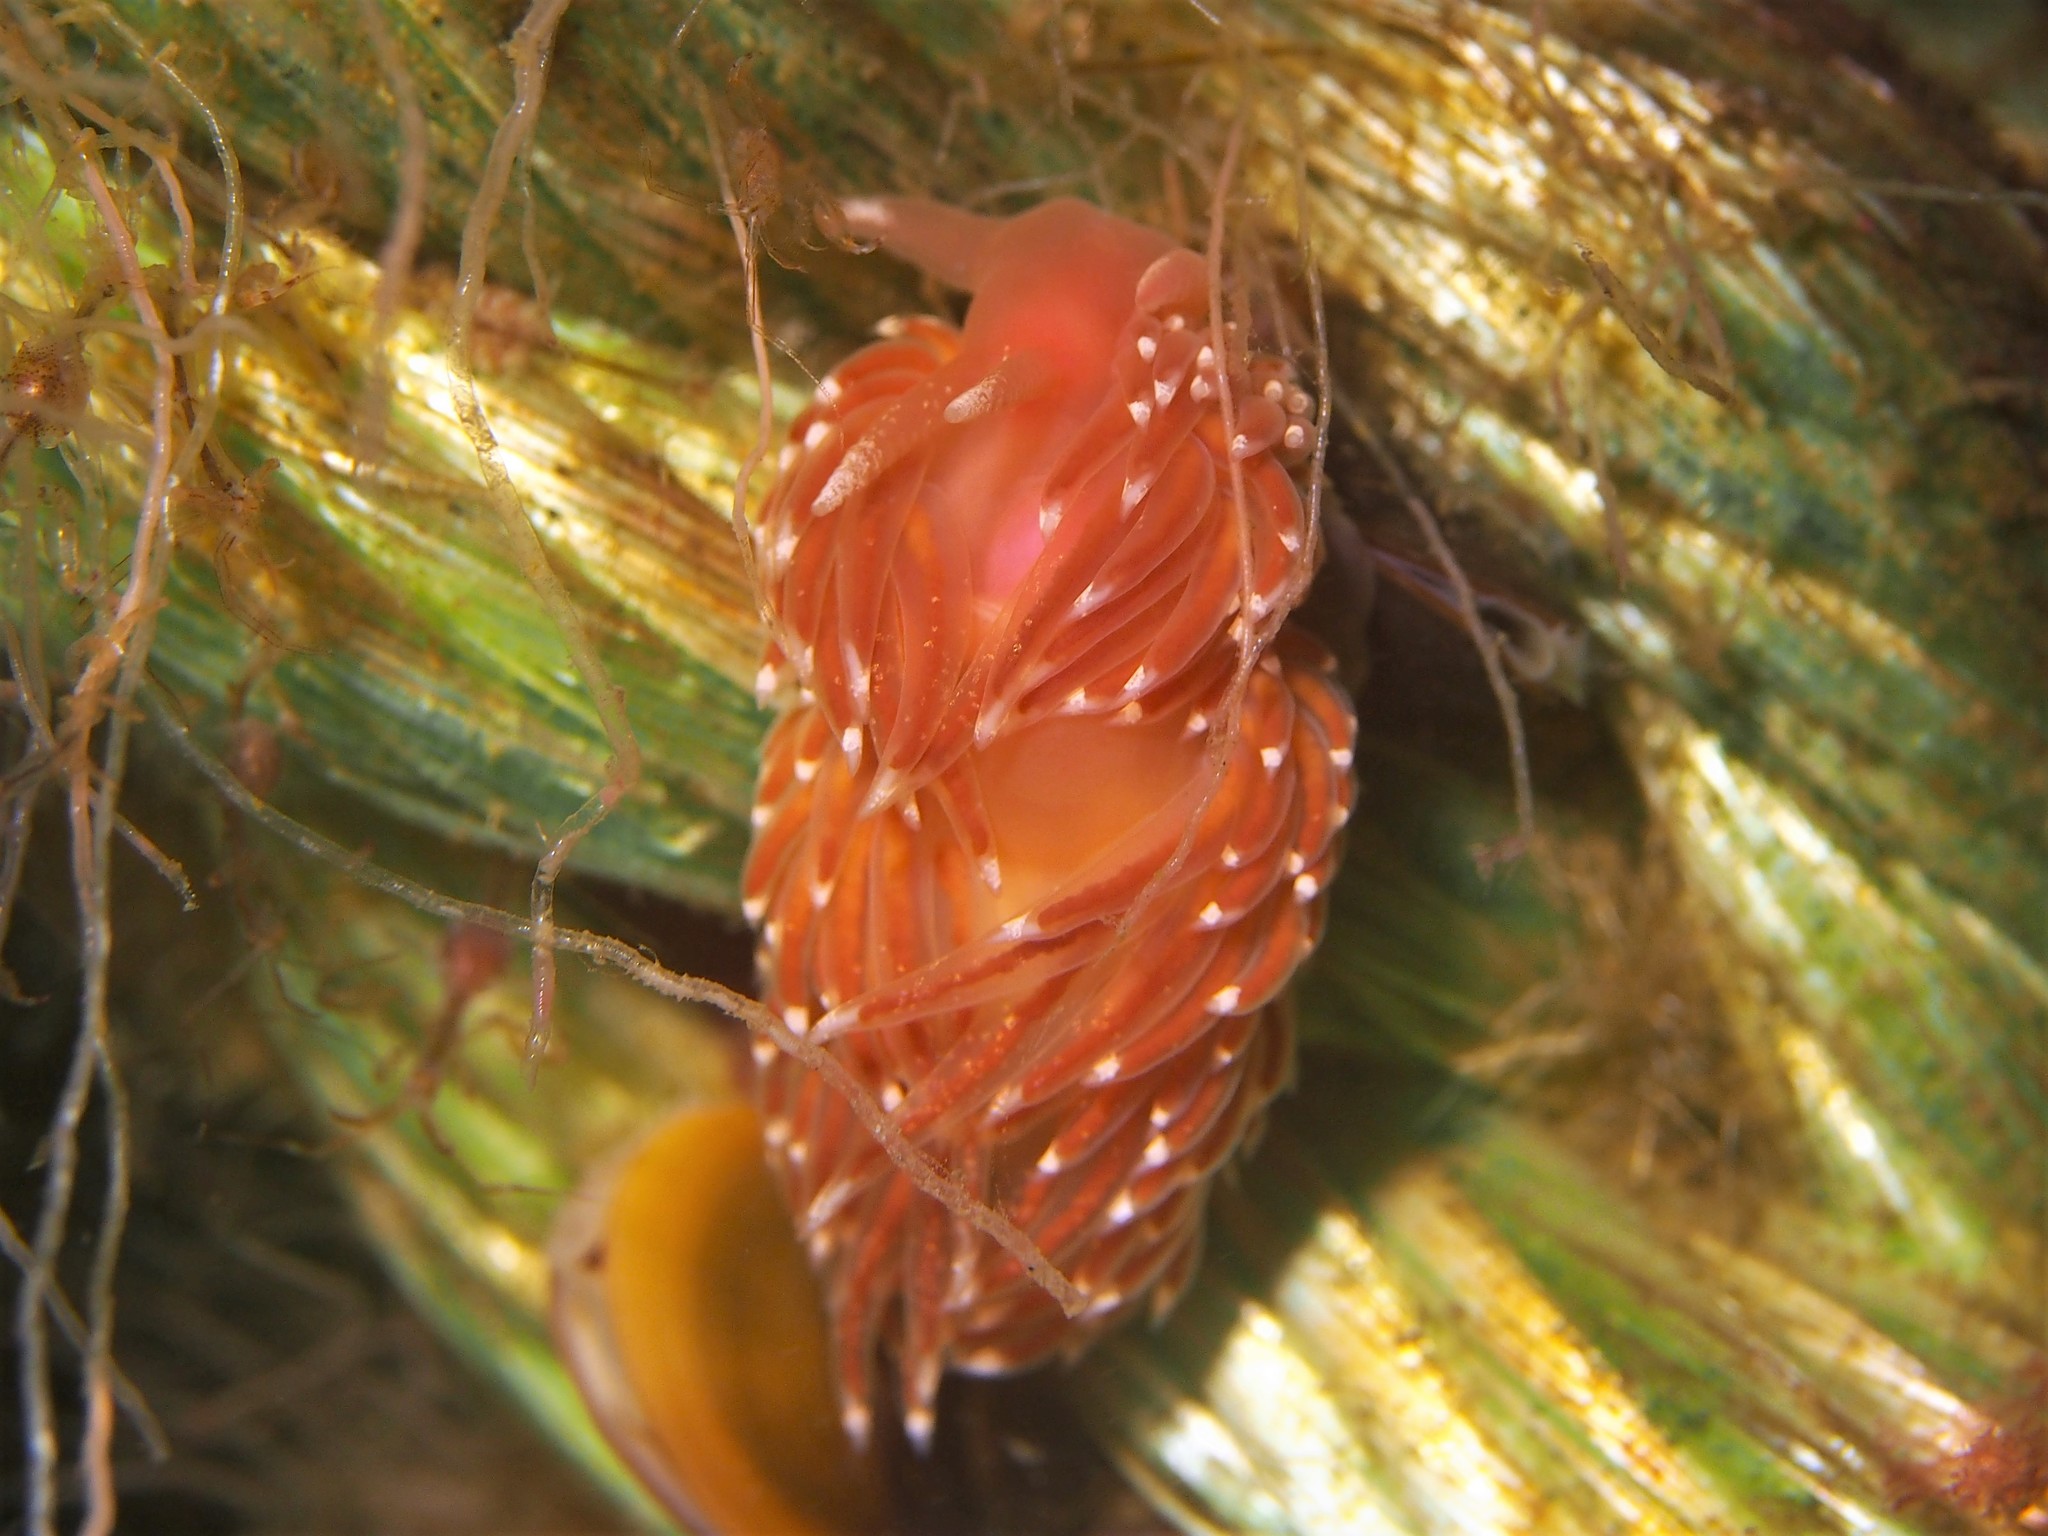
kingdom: Animalia
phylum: Mollusca
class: Gastropoda
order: Nudibranchia
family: Facelinidae
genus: Facelina
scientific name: Facelina bostoniensis
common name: Boston facelina
